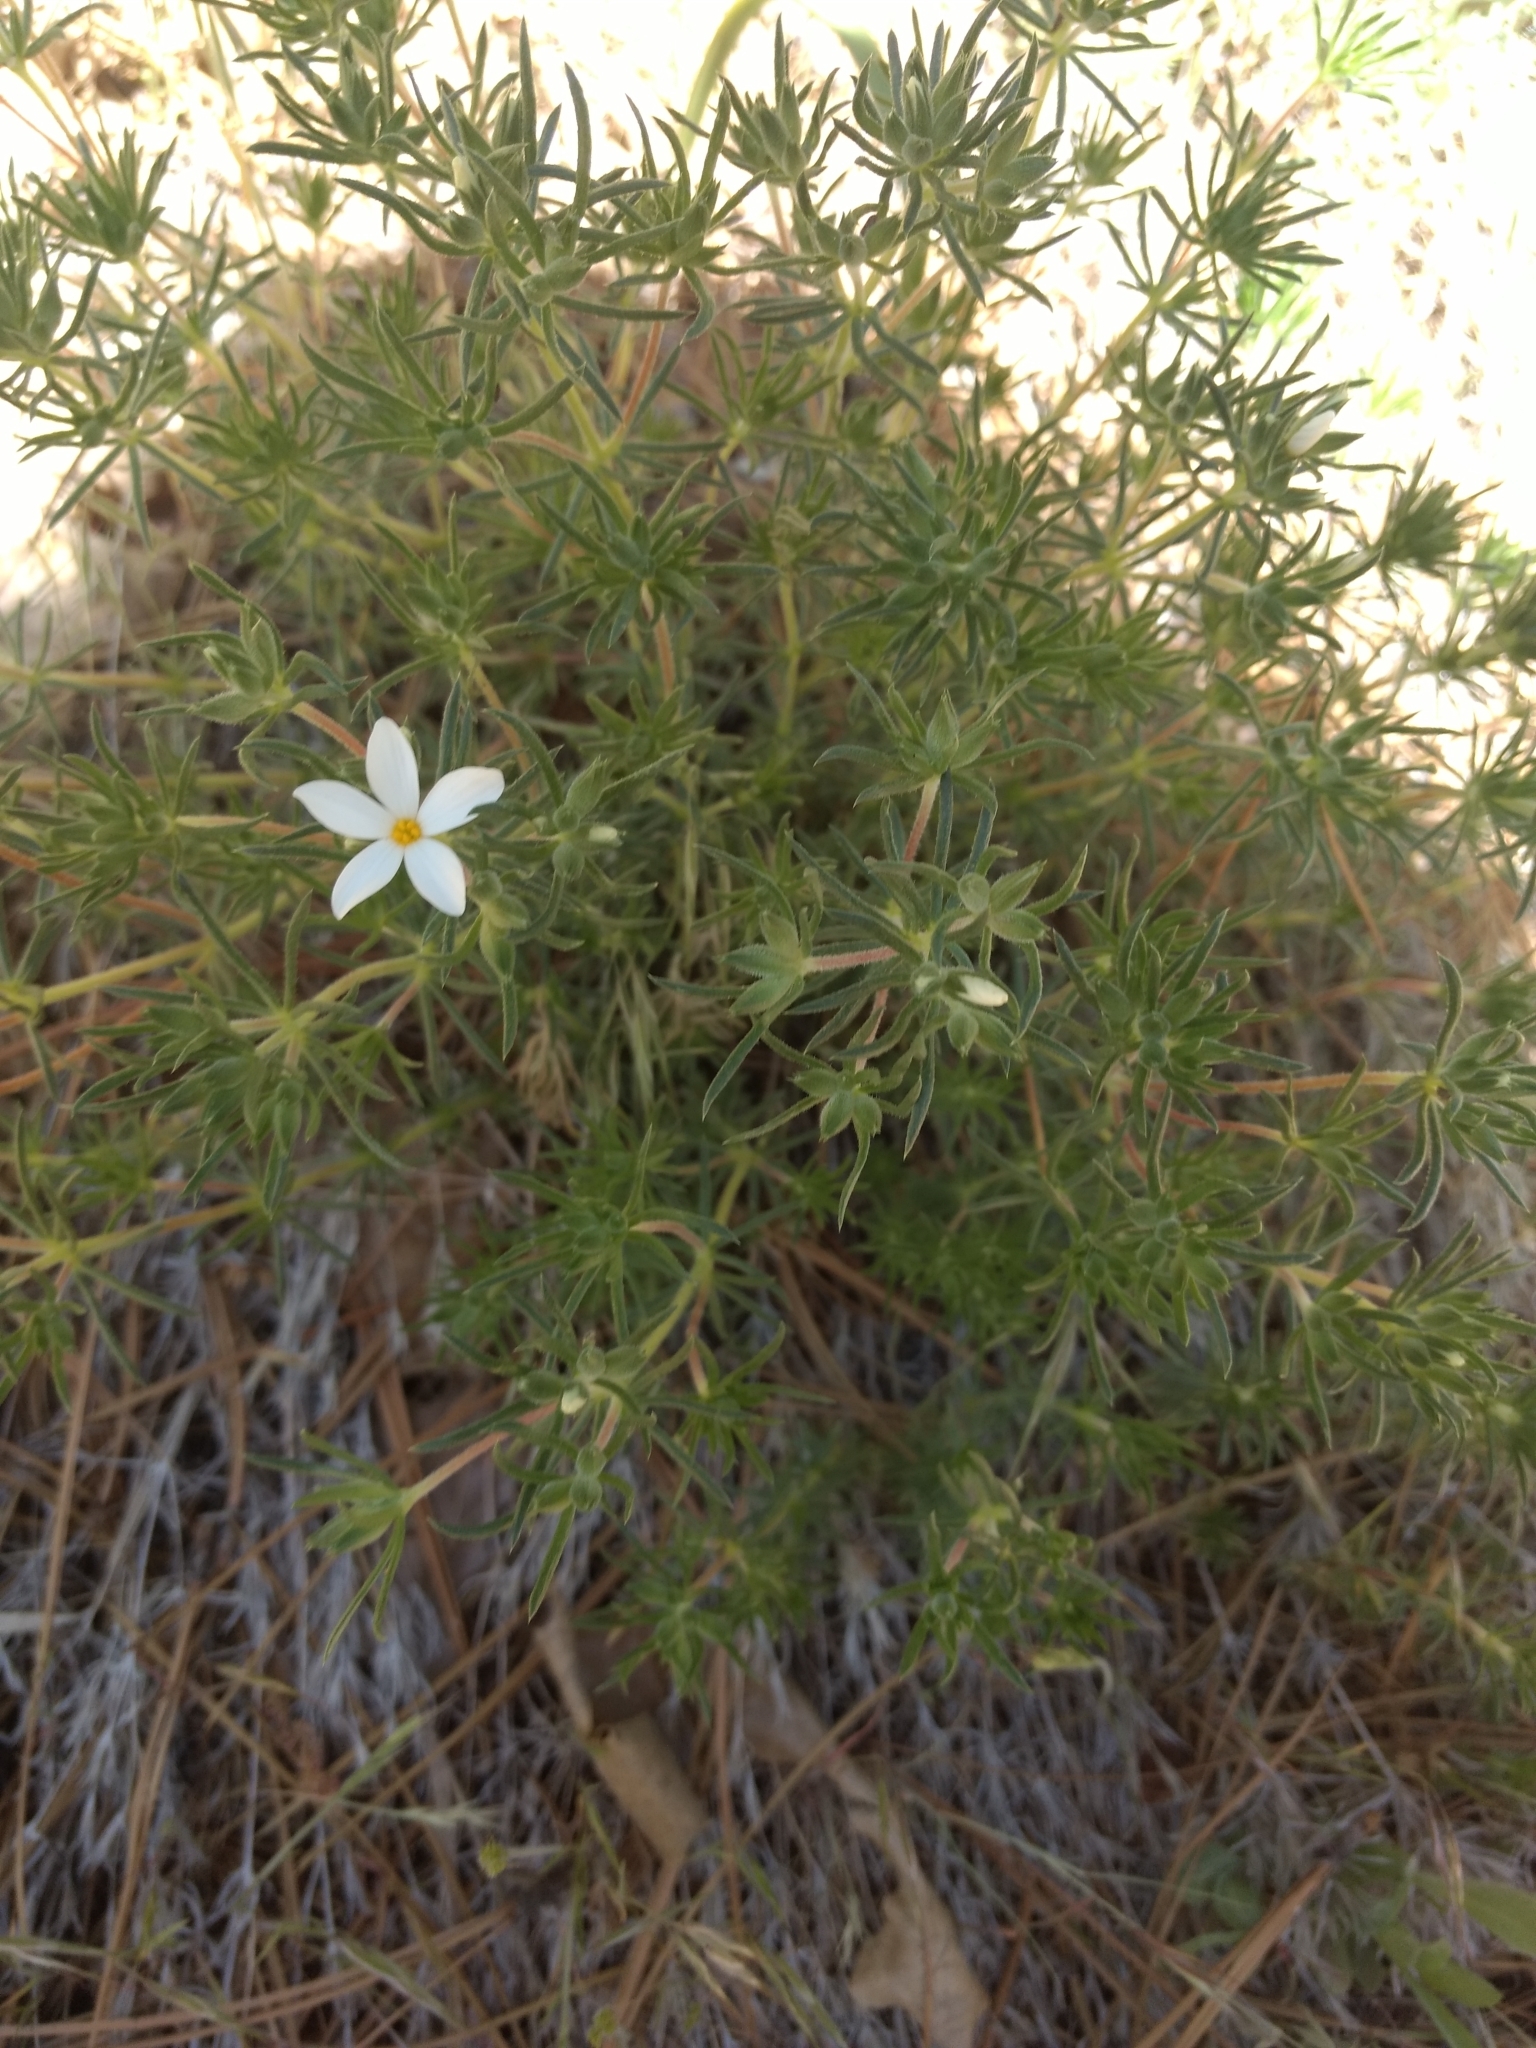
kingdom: Plantae
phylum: Tracheophyta
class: Magnoliopsida
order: Ericales
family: Polemoniaceae
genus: Leptosiphon
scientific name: Leptosiphon floribundum
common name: Many-flower linanthus
